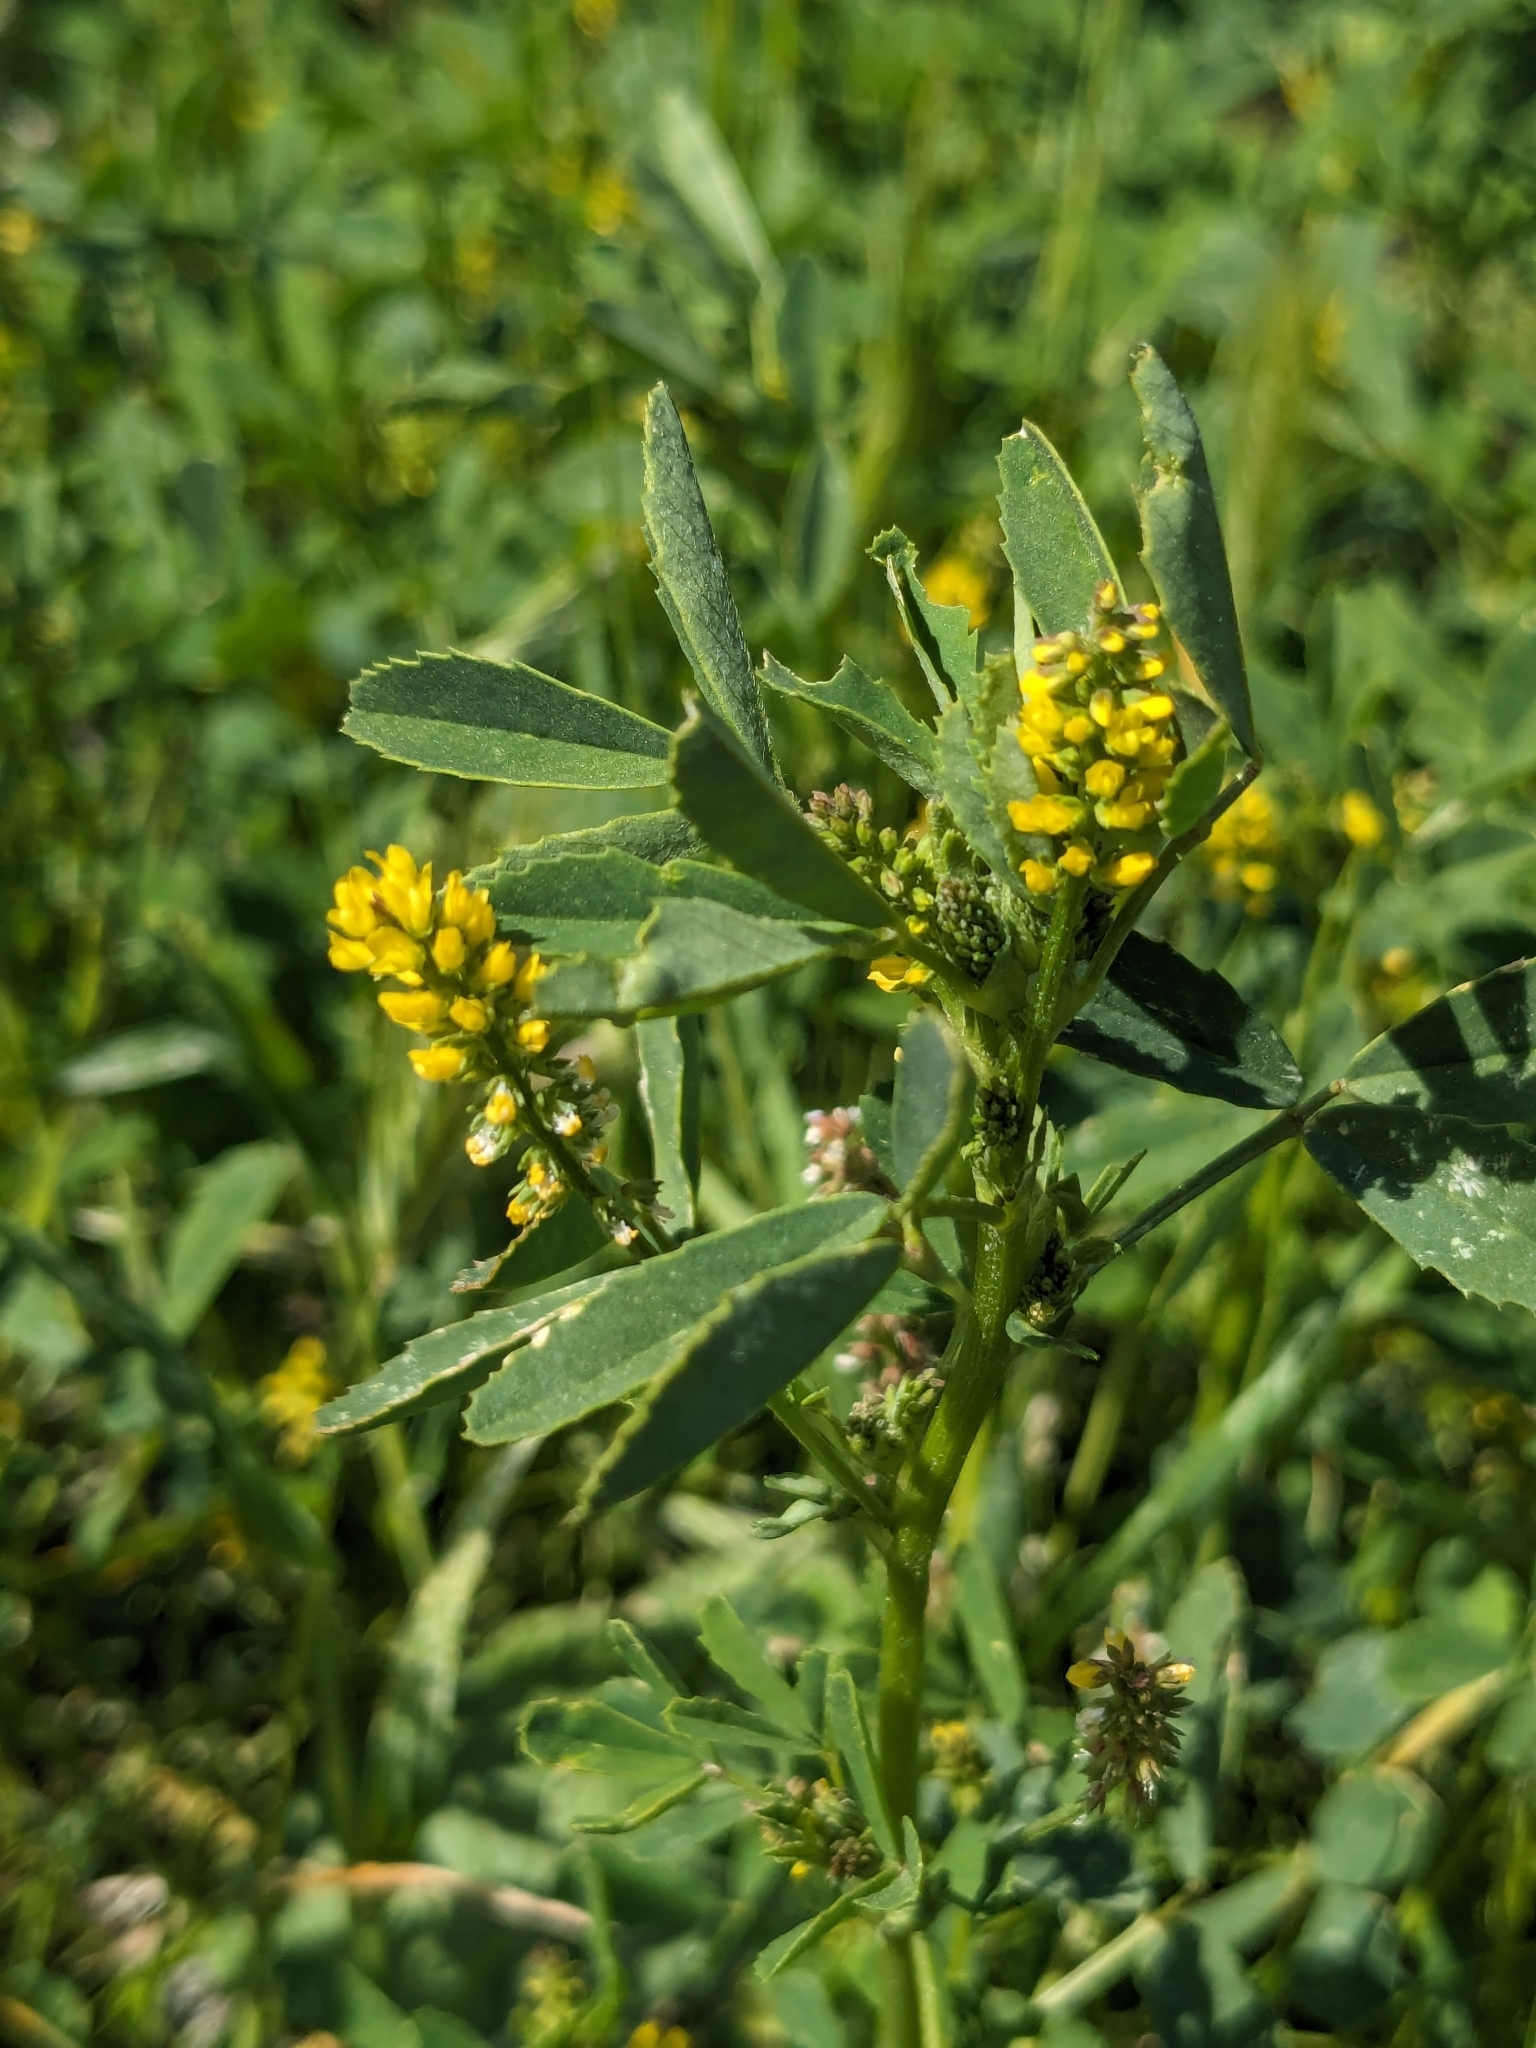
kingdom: Plantae
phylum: Tracheophyta
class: Magnoliopsida
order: Fabales
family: Fabaceae
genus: Melilotus
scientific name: Melilotus indicus
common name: Small melilot
